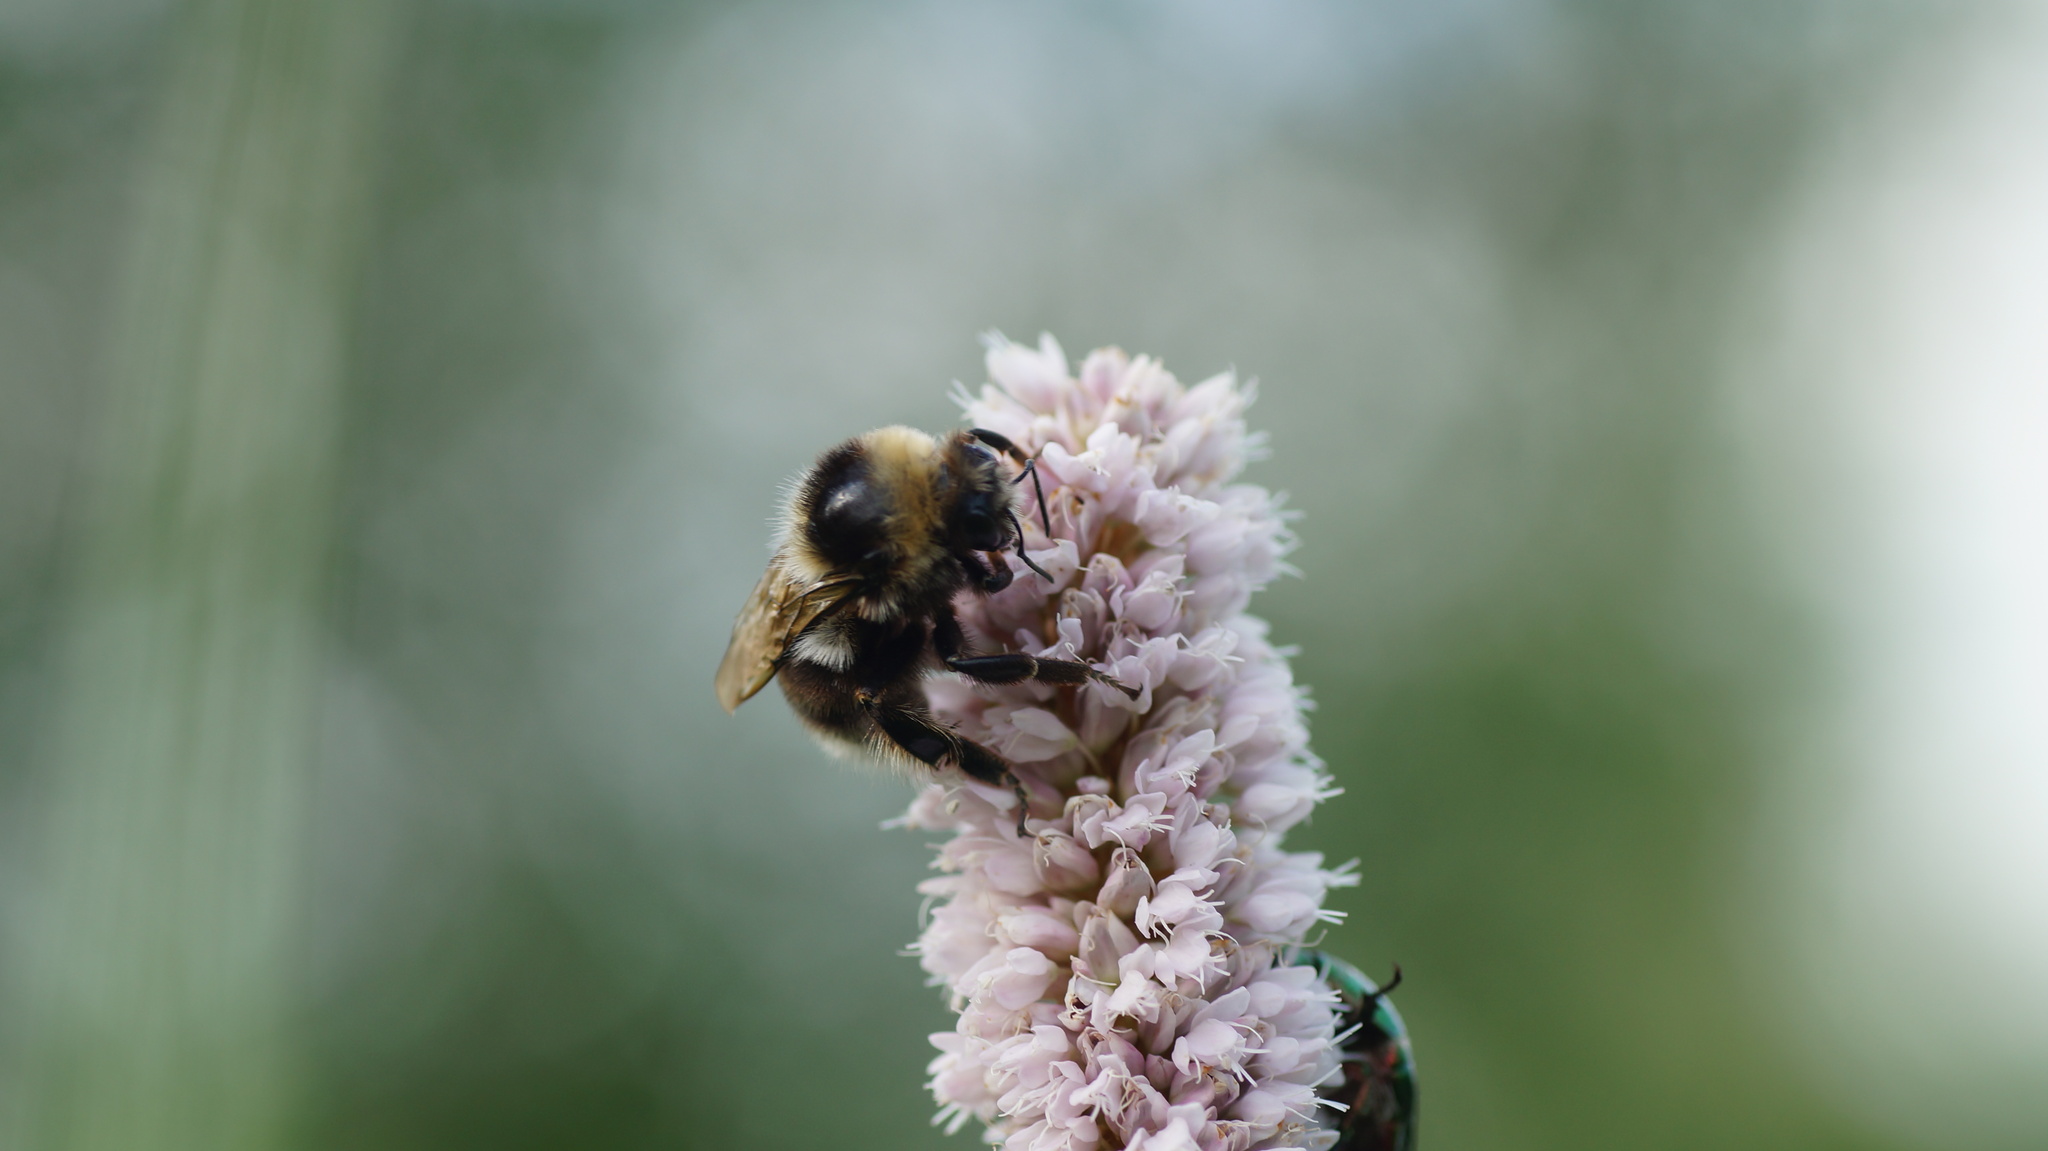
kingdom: Animalia
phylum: Arthropoda
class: Insecta
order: Hymenoptera
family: Apidae
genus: Bombus
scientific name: Bombus semenoviellus
